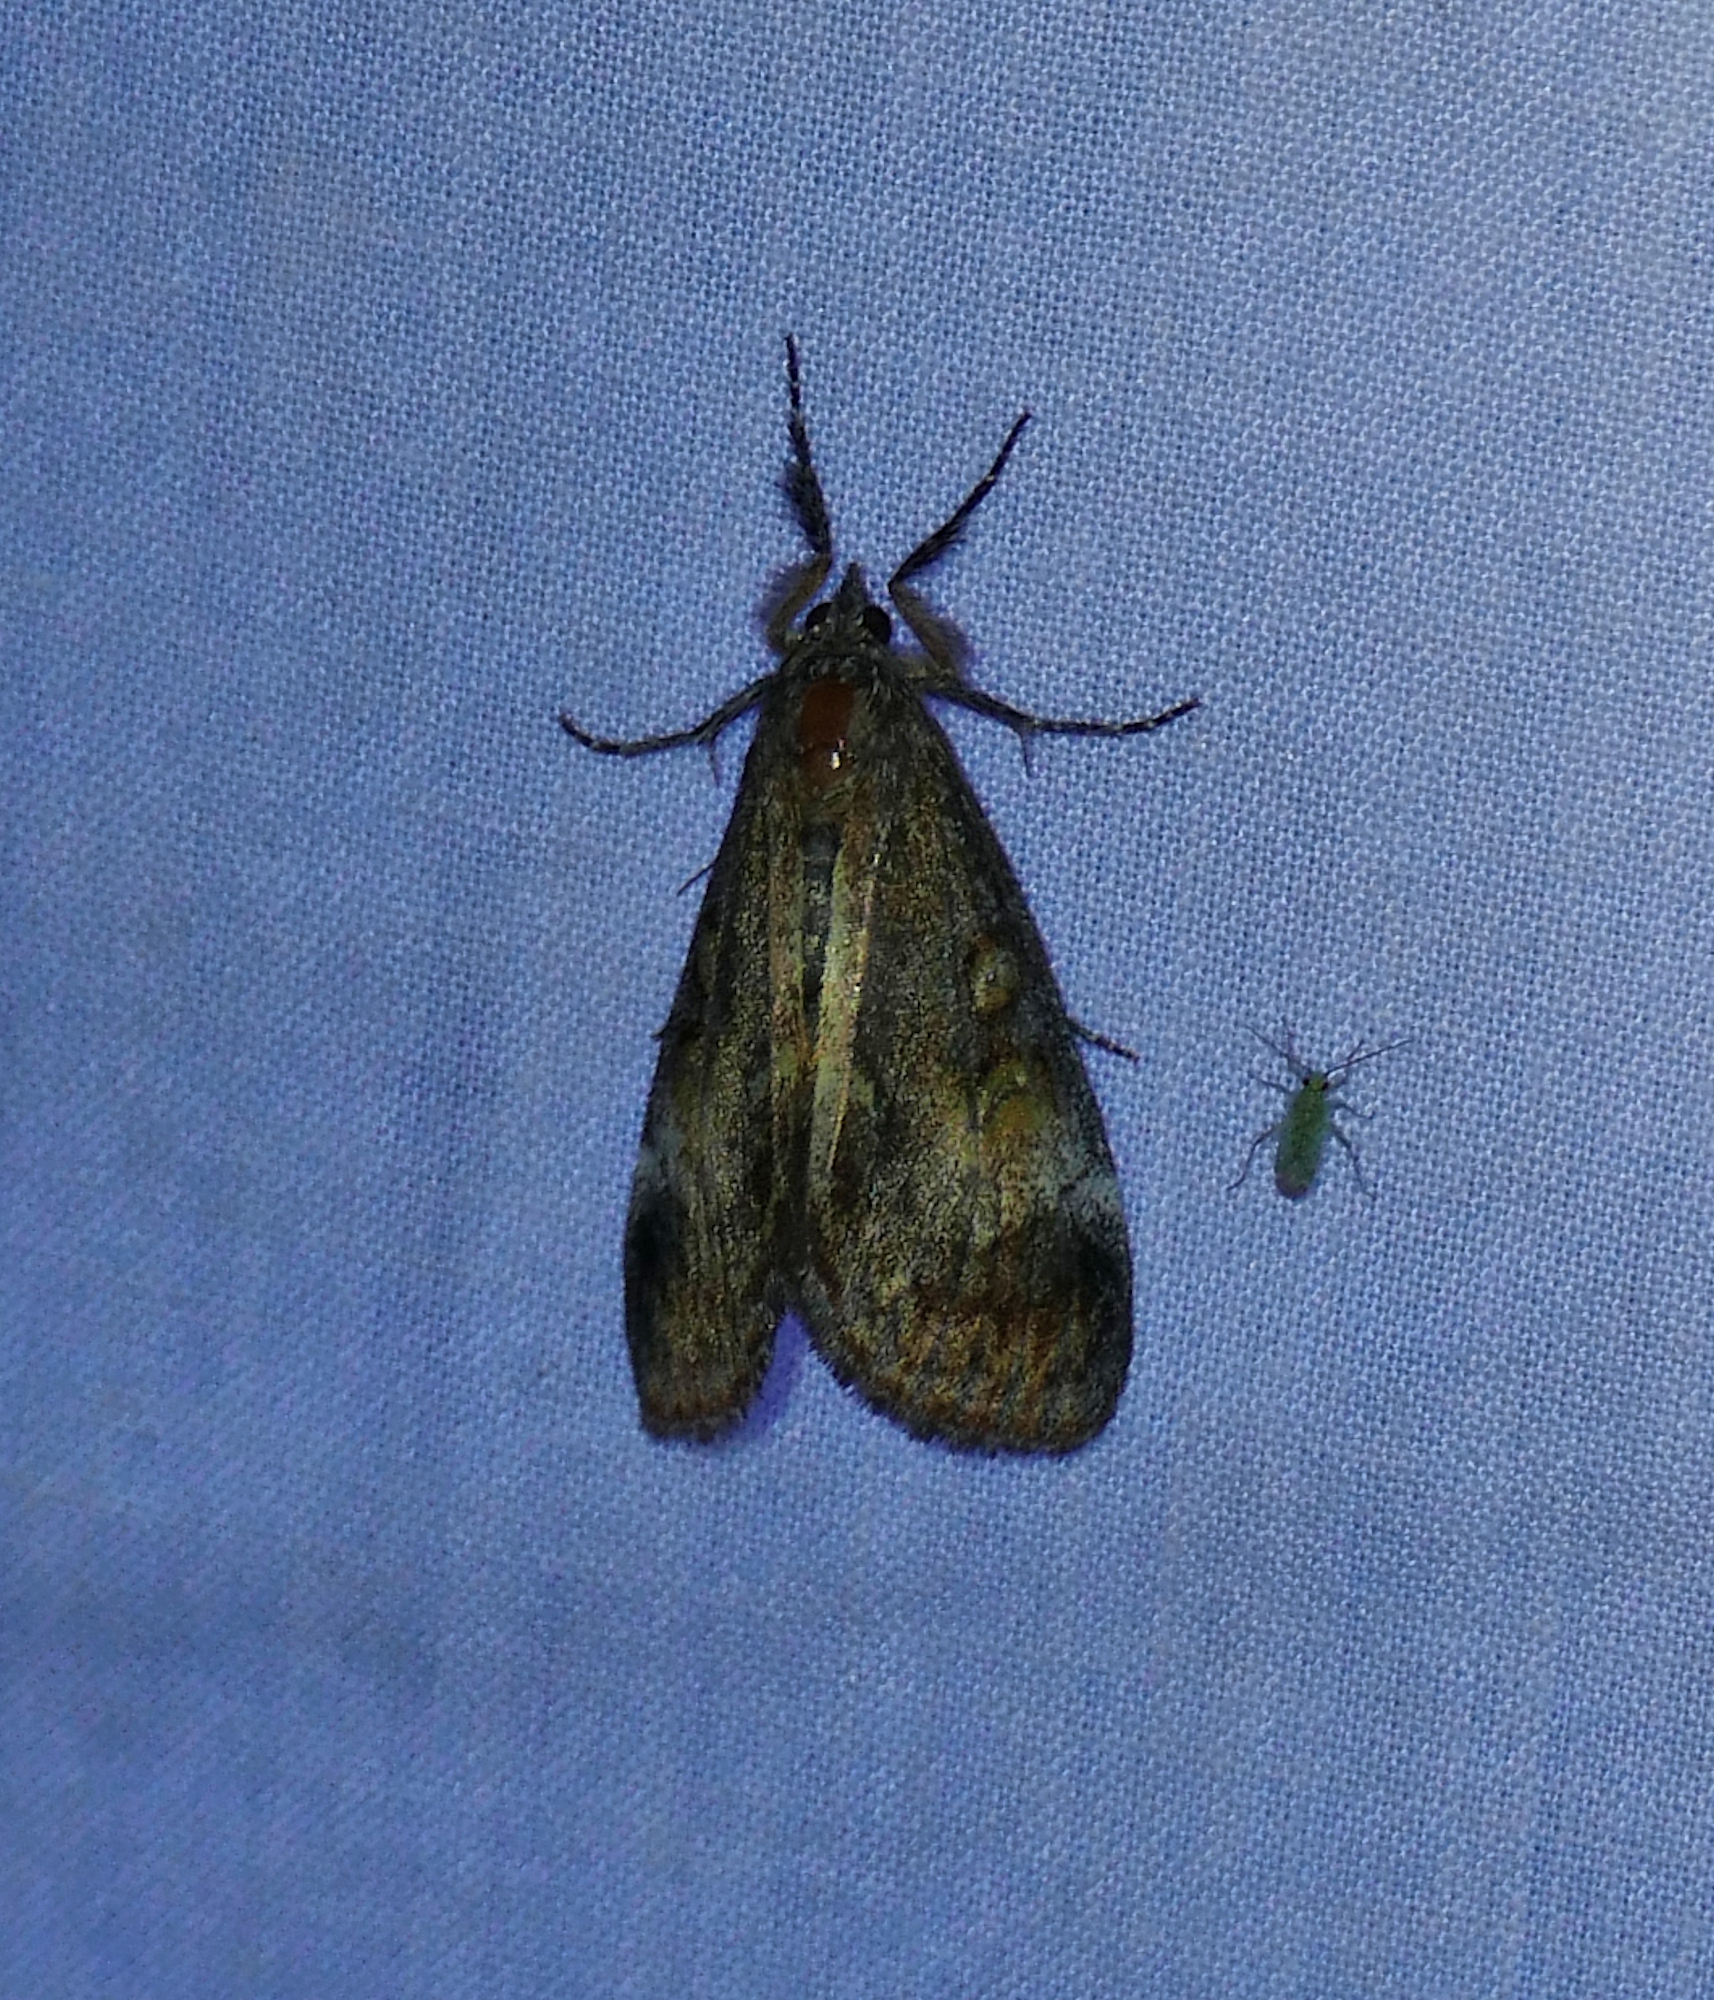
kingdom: Animalia
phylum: Arthropoda
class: Insecta
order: Lepidoptera
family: Noctuidae
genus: Gerra
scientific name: Gerra sevorsa
